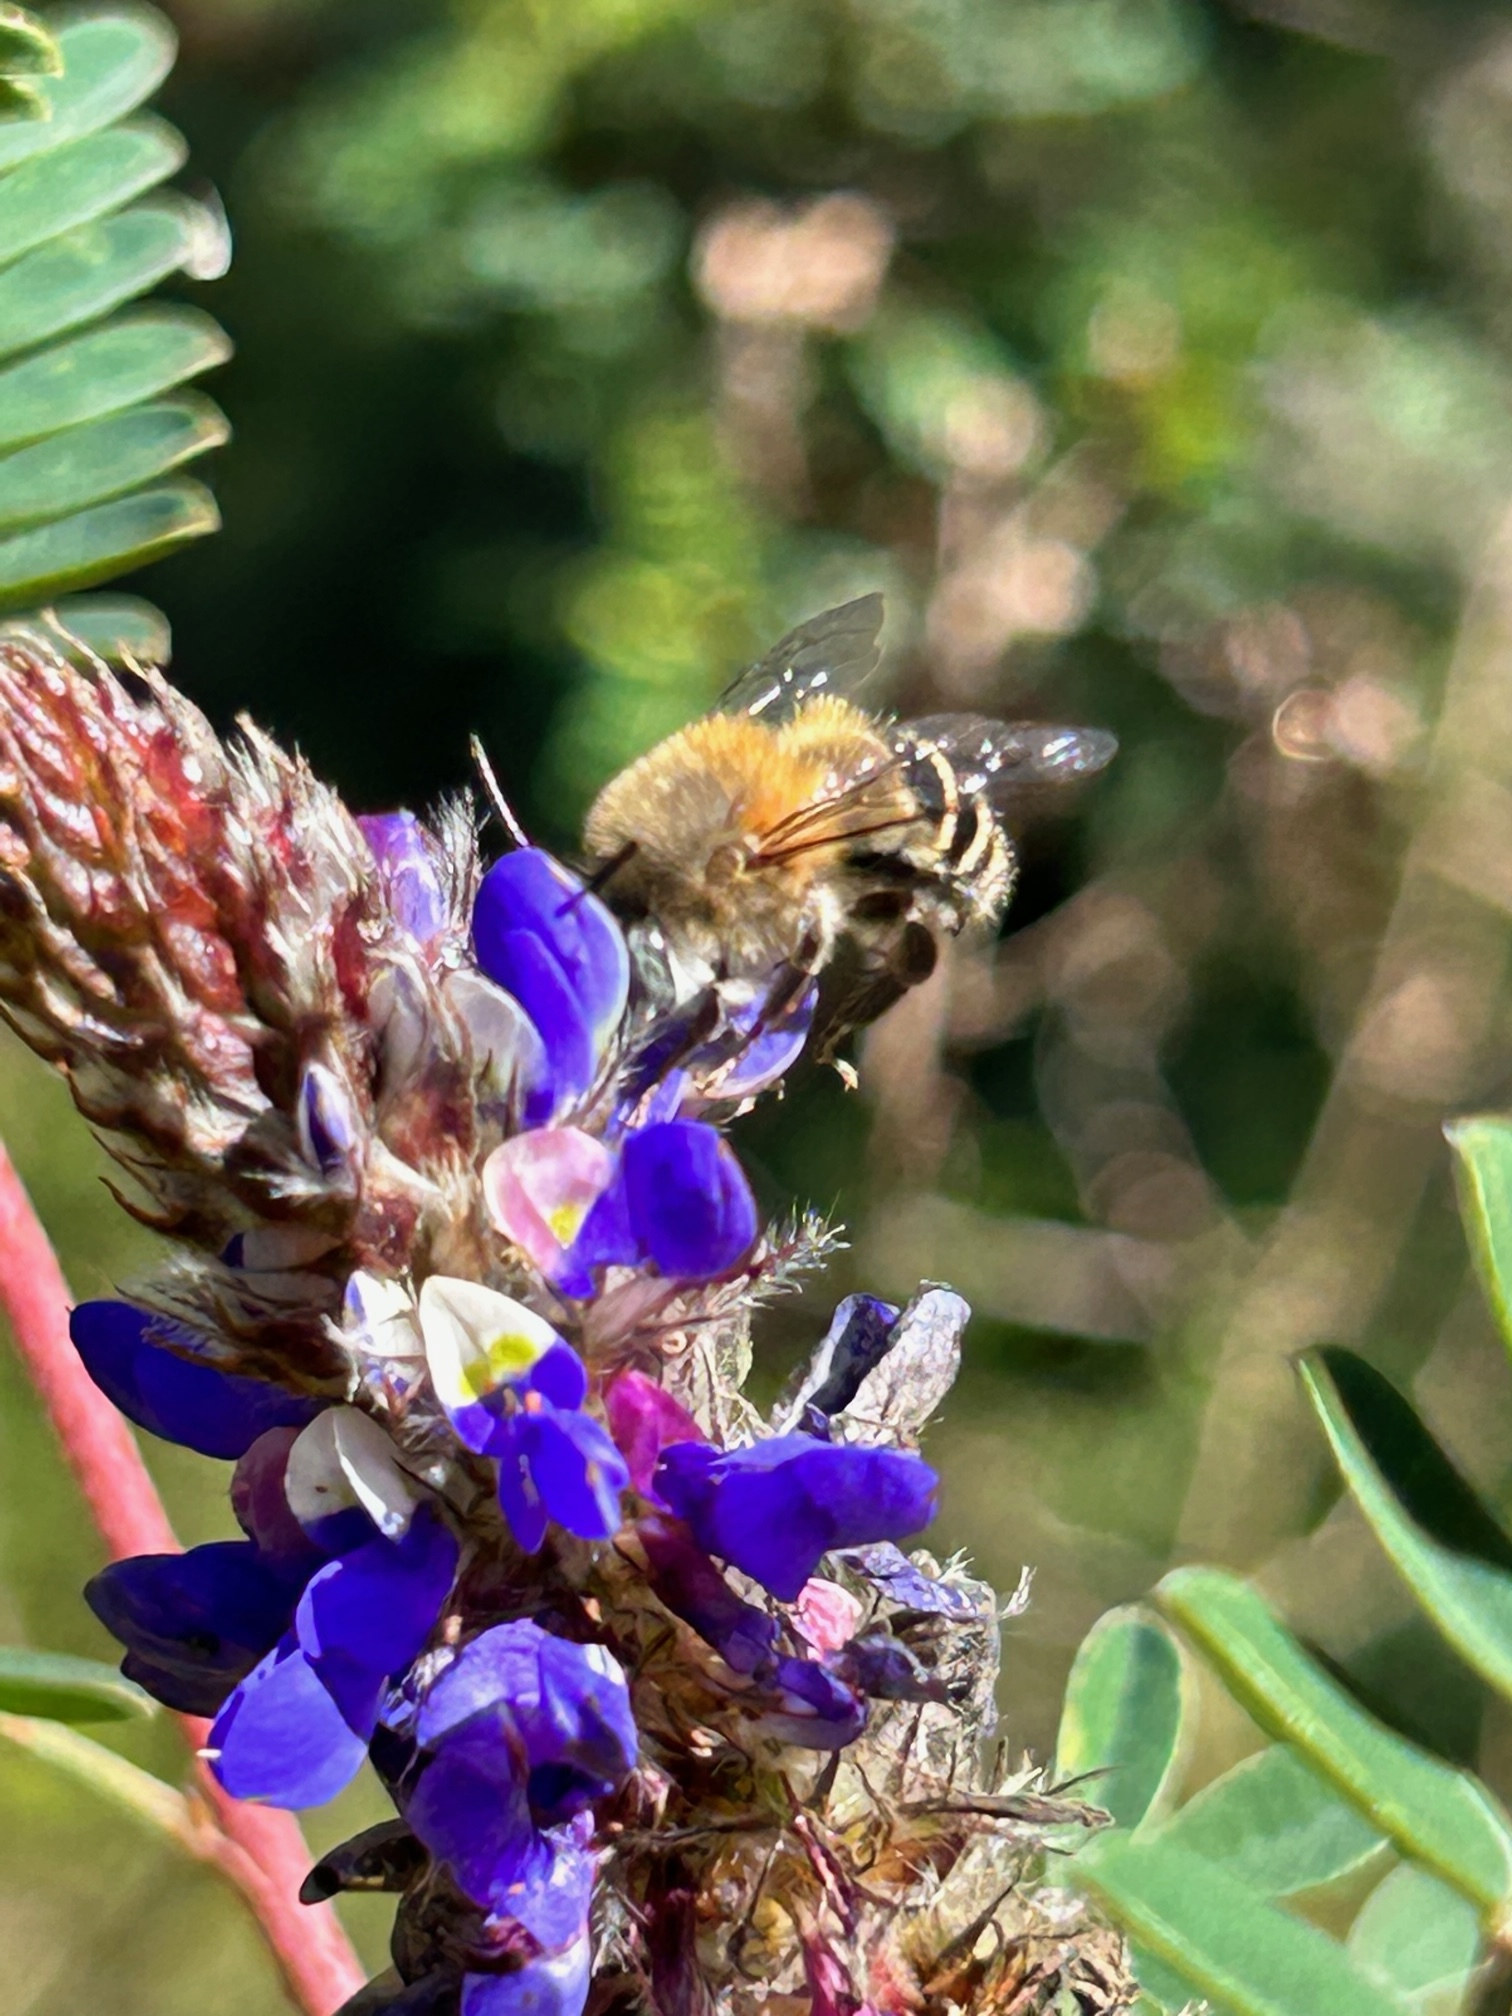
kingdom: Animalia
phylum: Arthropoda
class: Insecta
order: Hymenoptera
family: Apidae
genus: Anthophora
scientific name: Anthophora pilifrons
